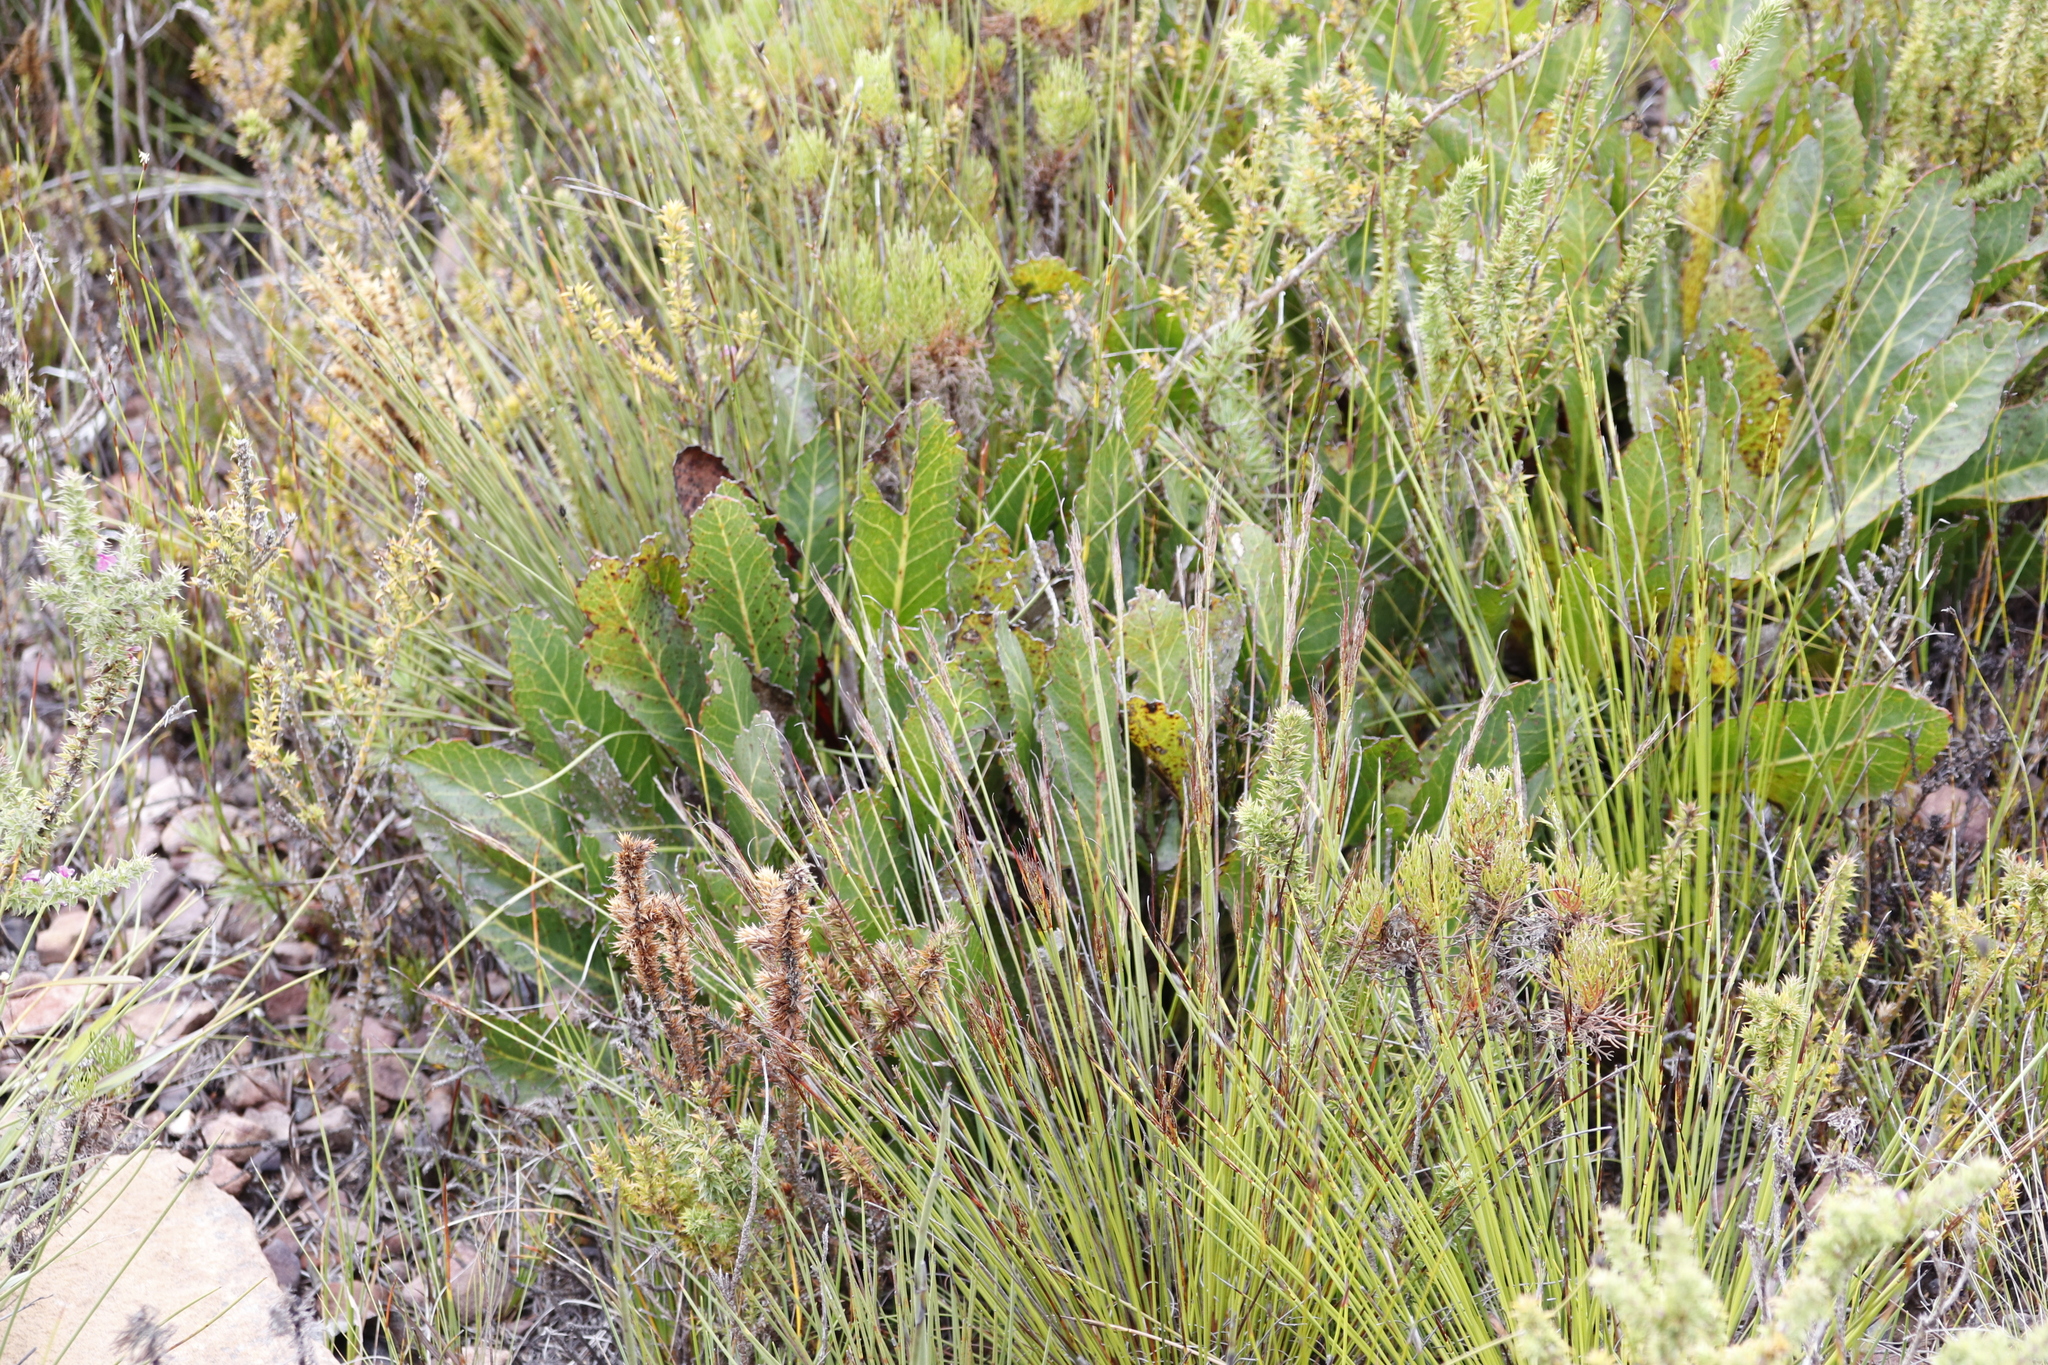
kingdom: Plantae
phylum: Tracheophyta
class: Magnoliopsida
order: Proteales
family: Proteaceae
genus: Protea
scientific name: Protea scolymocephala
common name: Thistle sugarbush
